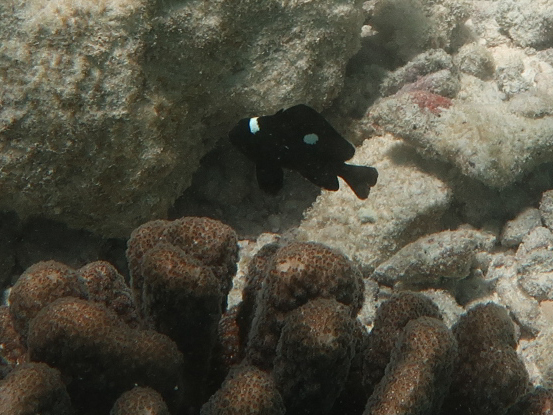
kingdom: Animalia
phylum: Chordata
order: Perciformes
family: Pomacentridae
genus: Dascyllus
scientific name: Dascyllus trimaculatus
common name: Threespot dascyllus
